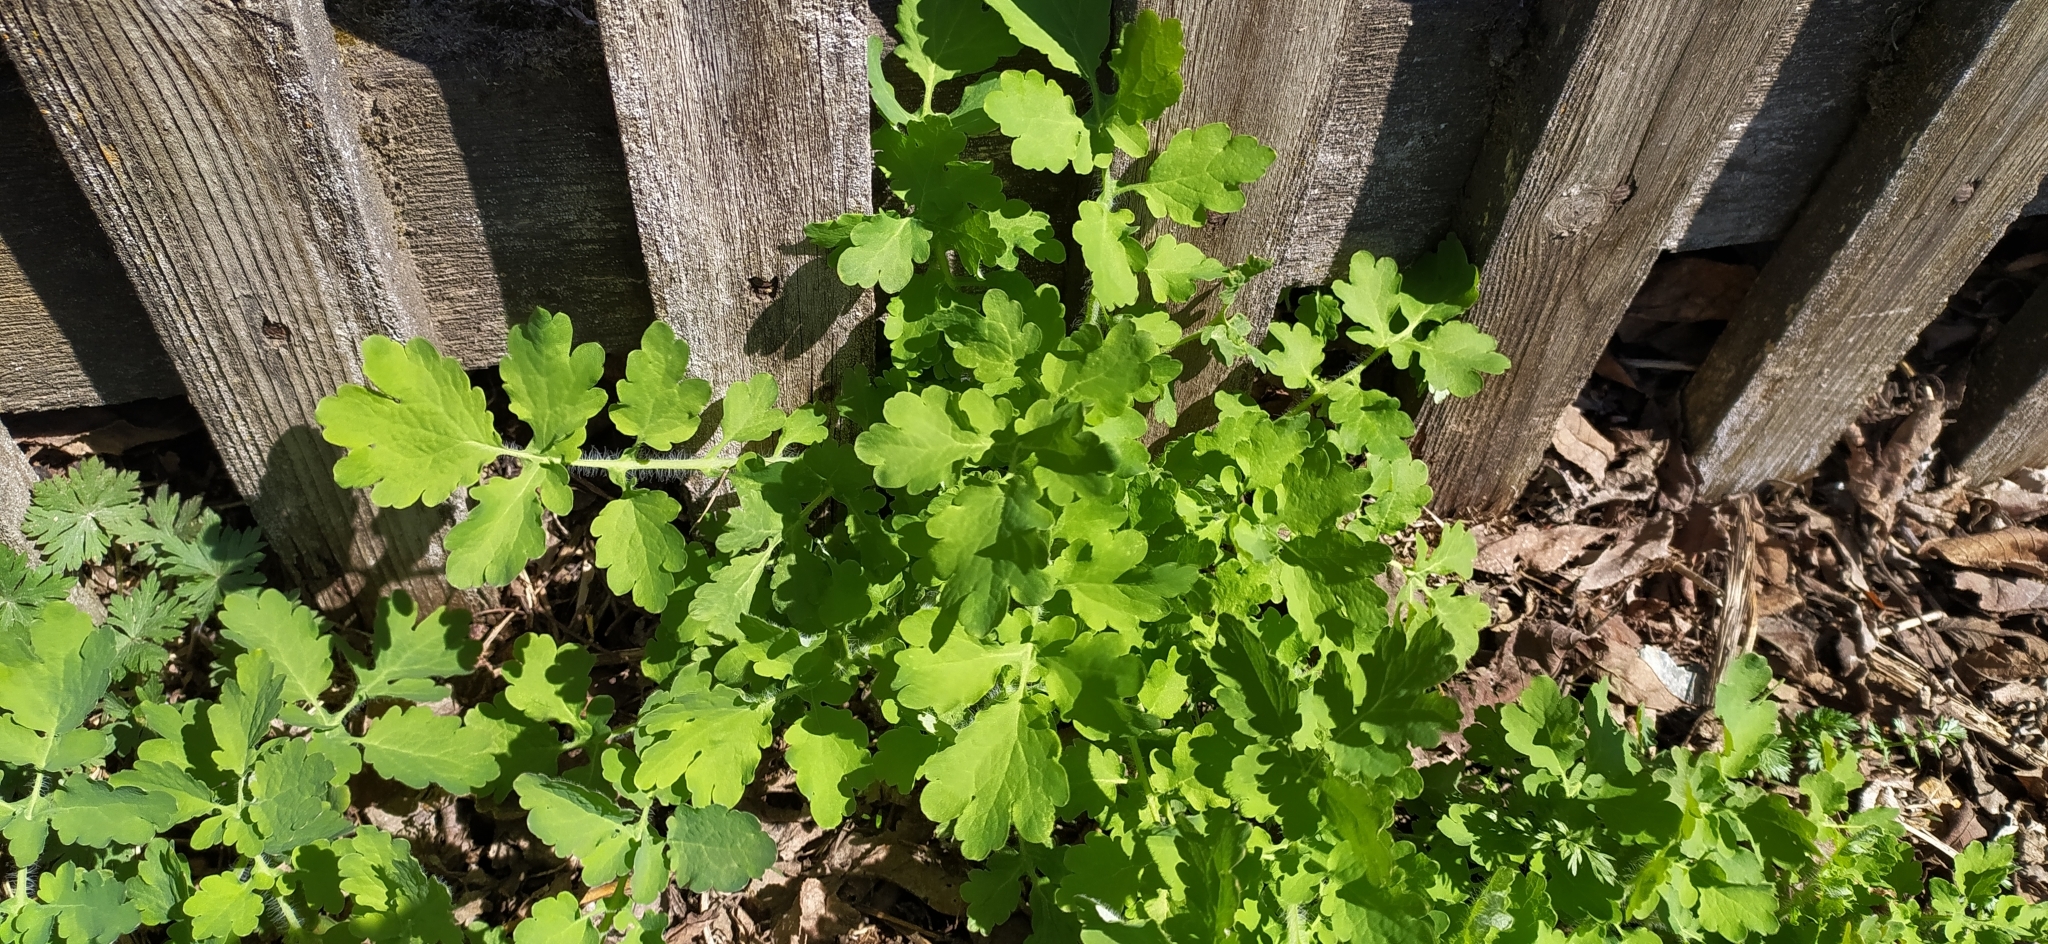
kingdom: Plantae
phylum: Tracheophyta
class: Magnoliopsida
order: Ranunculales
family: Papaveraceae
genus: Chelidonium
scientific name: Chelidonium majus
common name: Greater celandine
